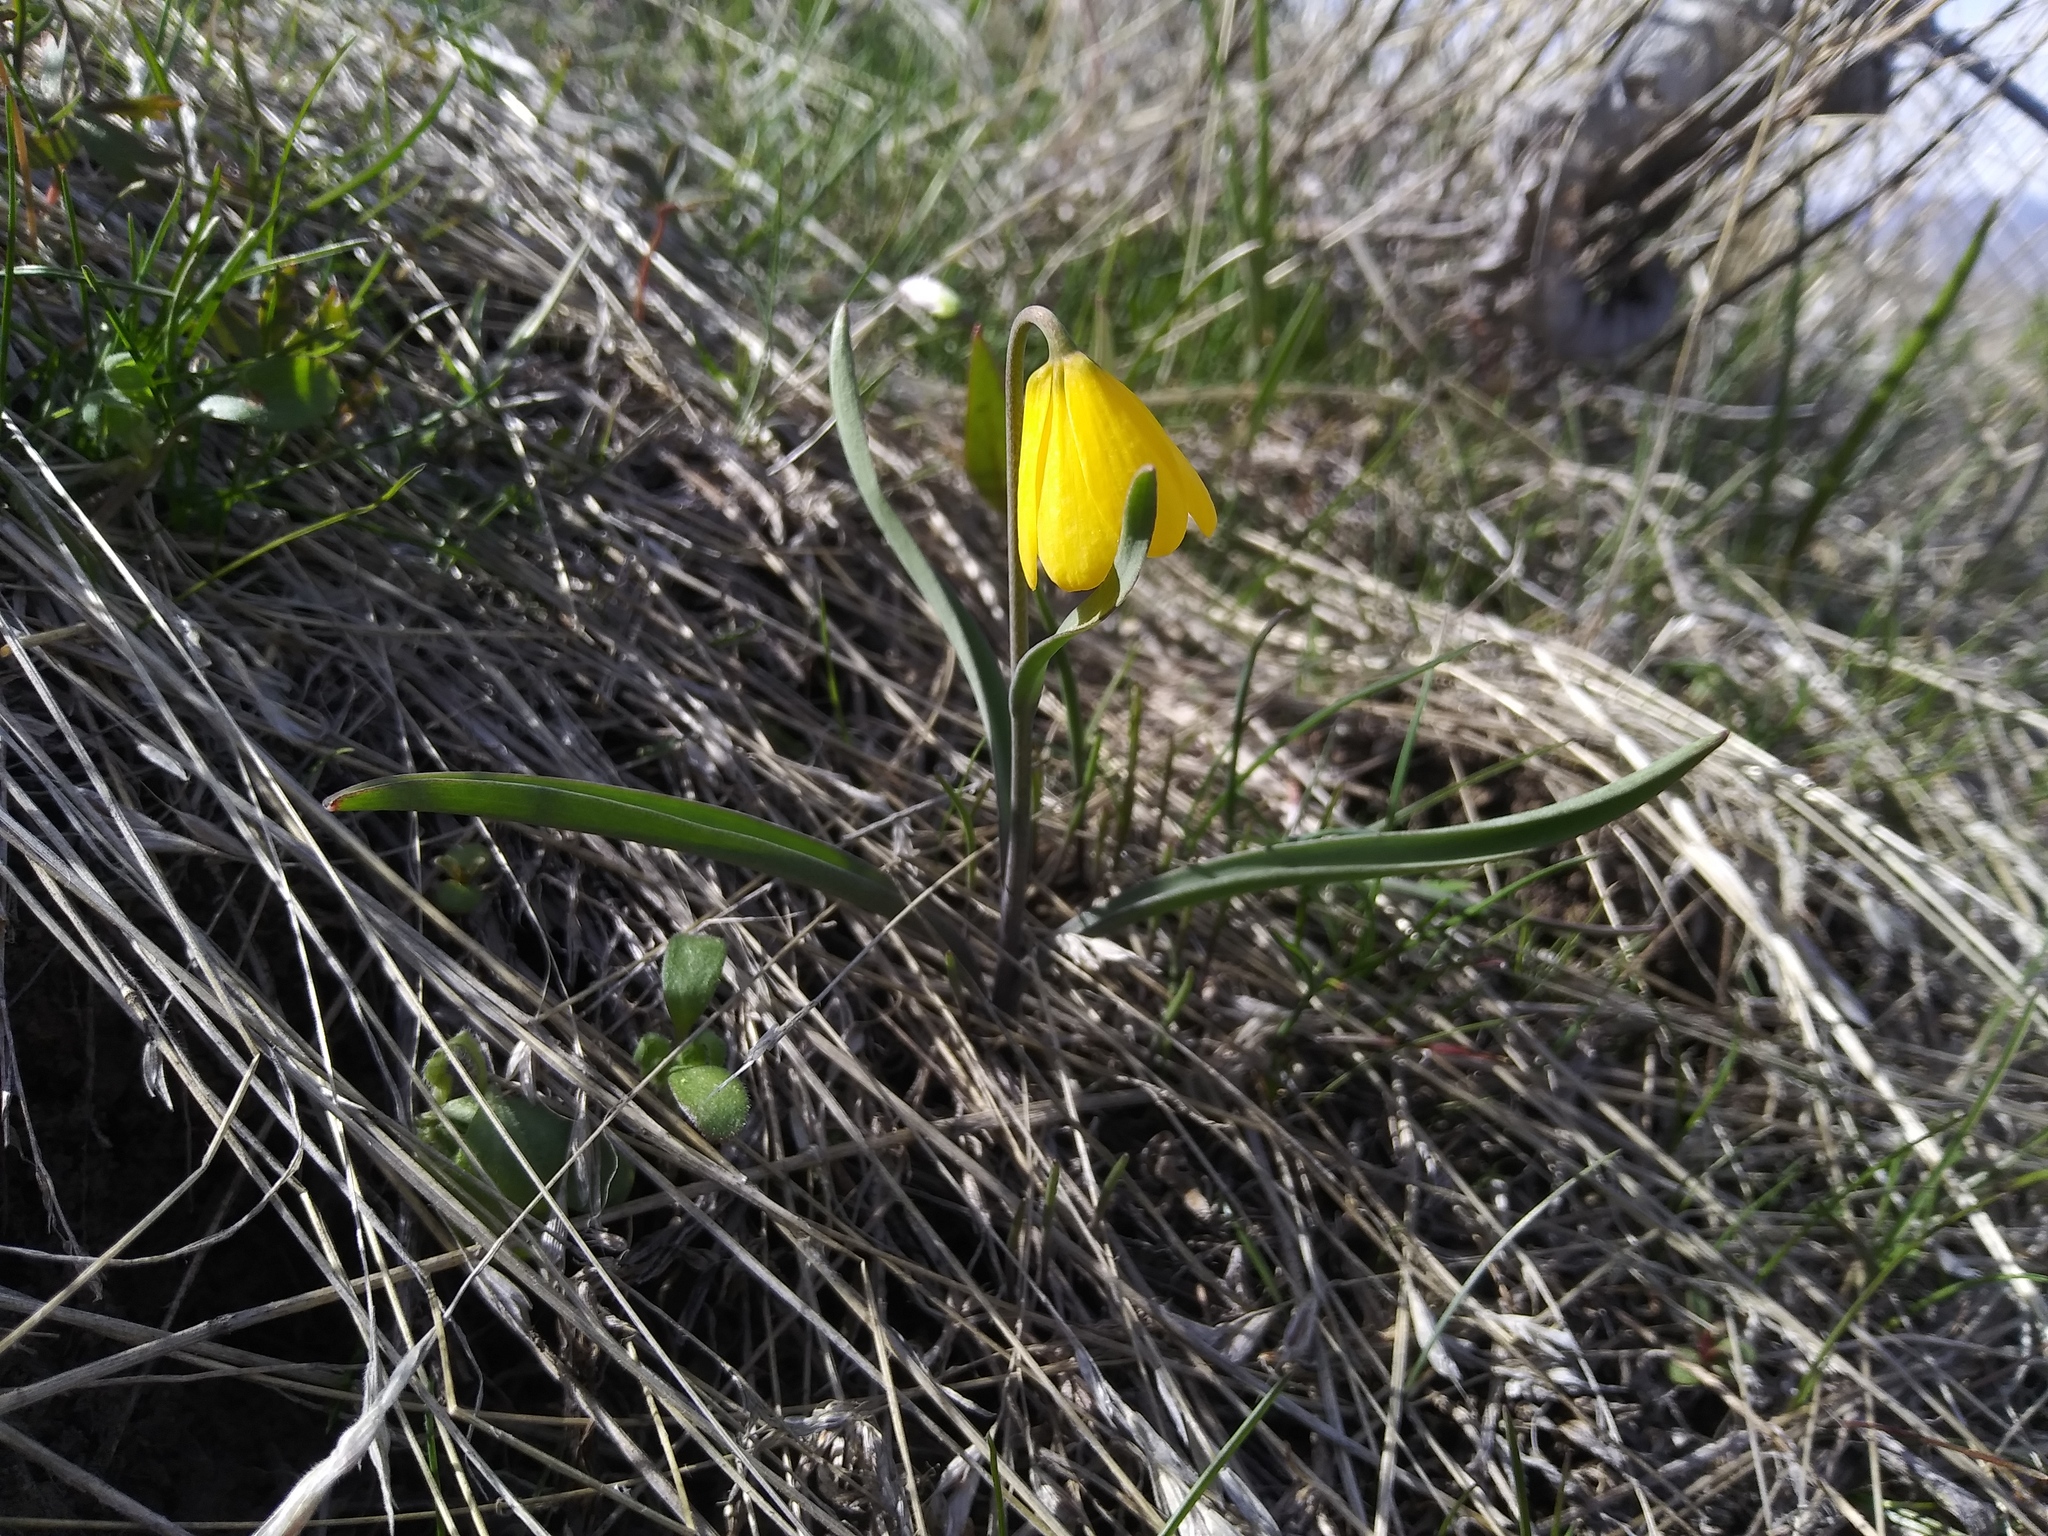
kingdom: Plantae
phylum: Tracheophyta
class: Liliopsida
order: Liliales
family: Liliaceae
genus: Fritillaria
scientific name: Fritillaria pudica
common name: Yellow fritillary
